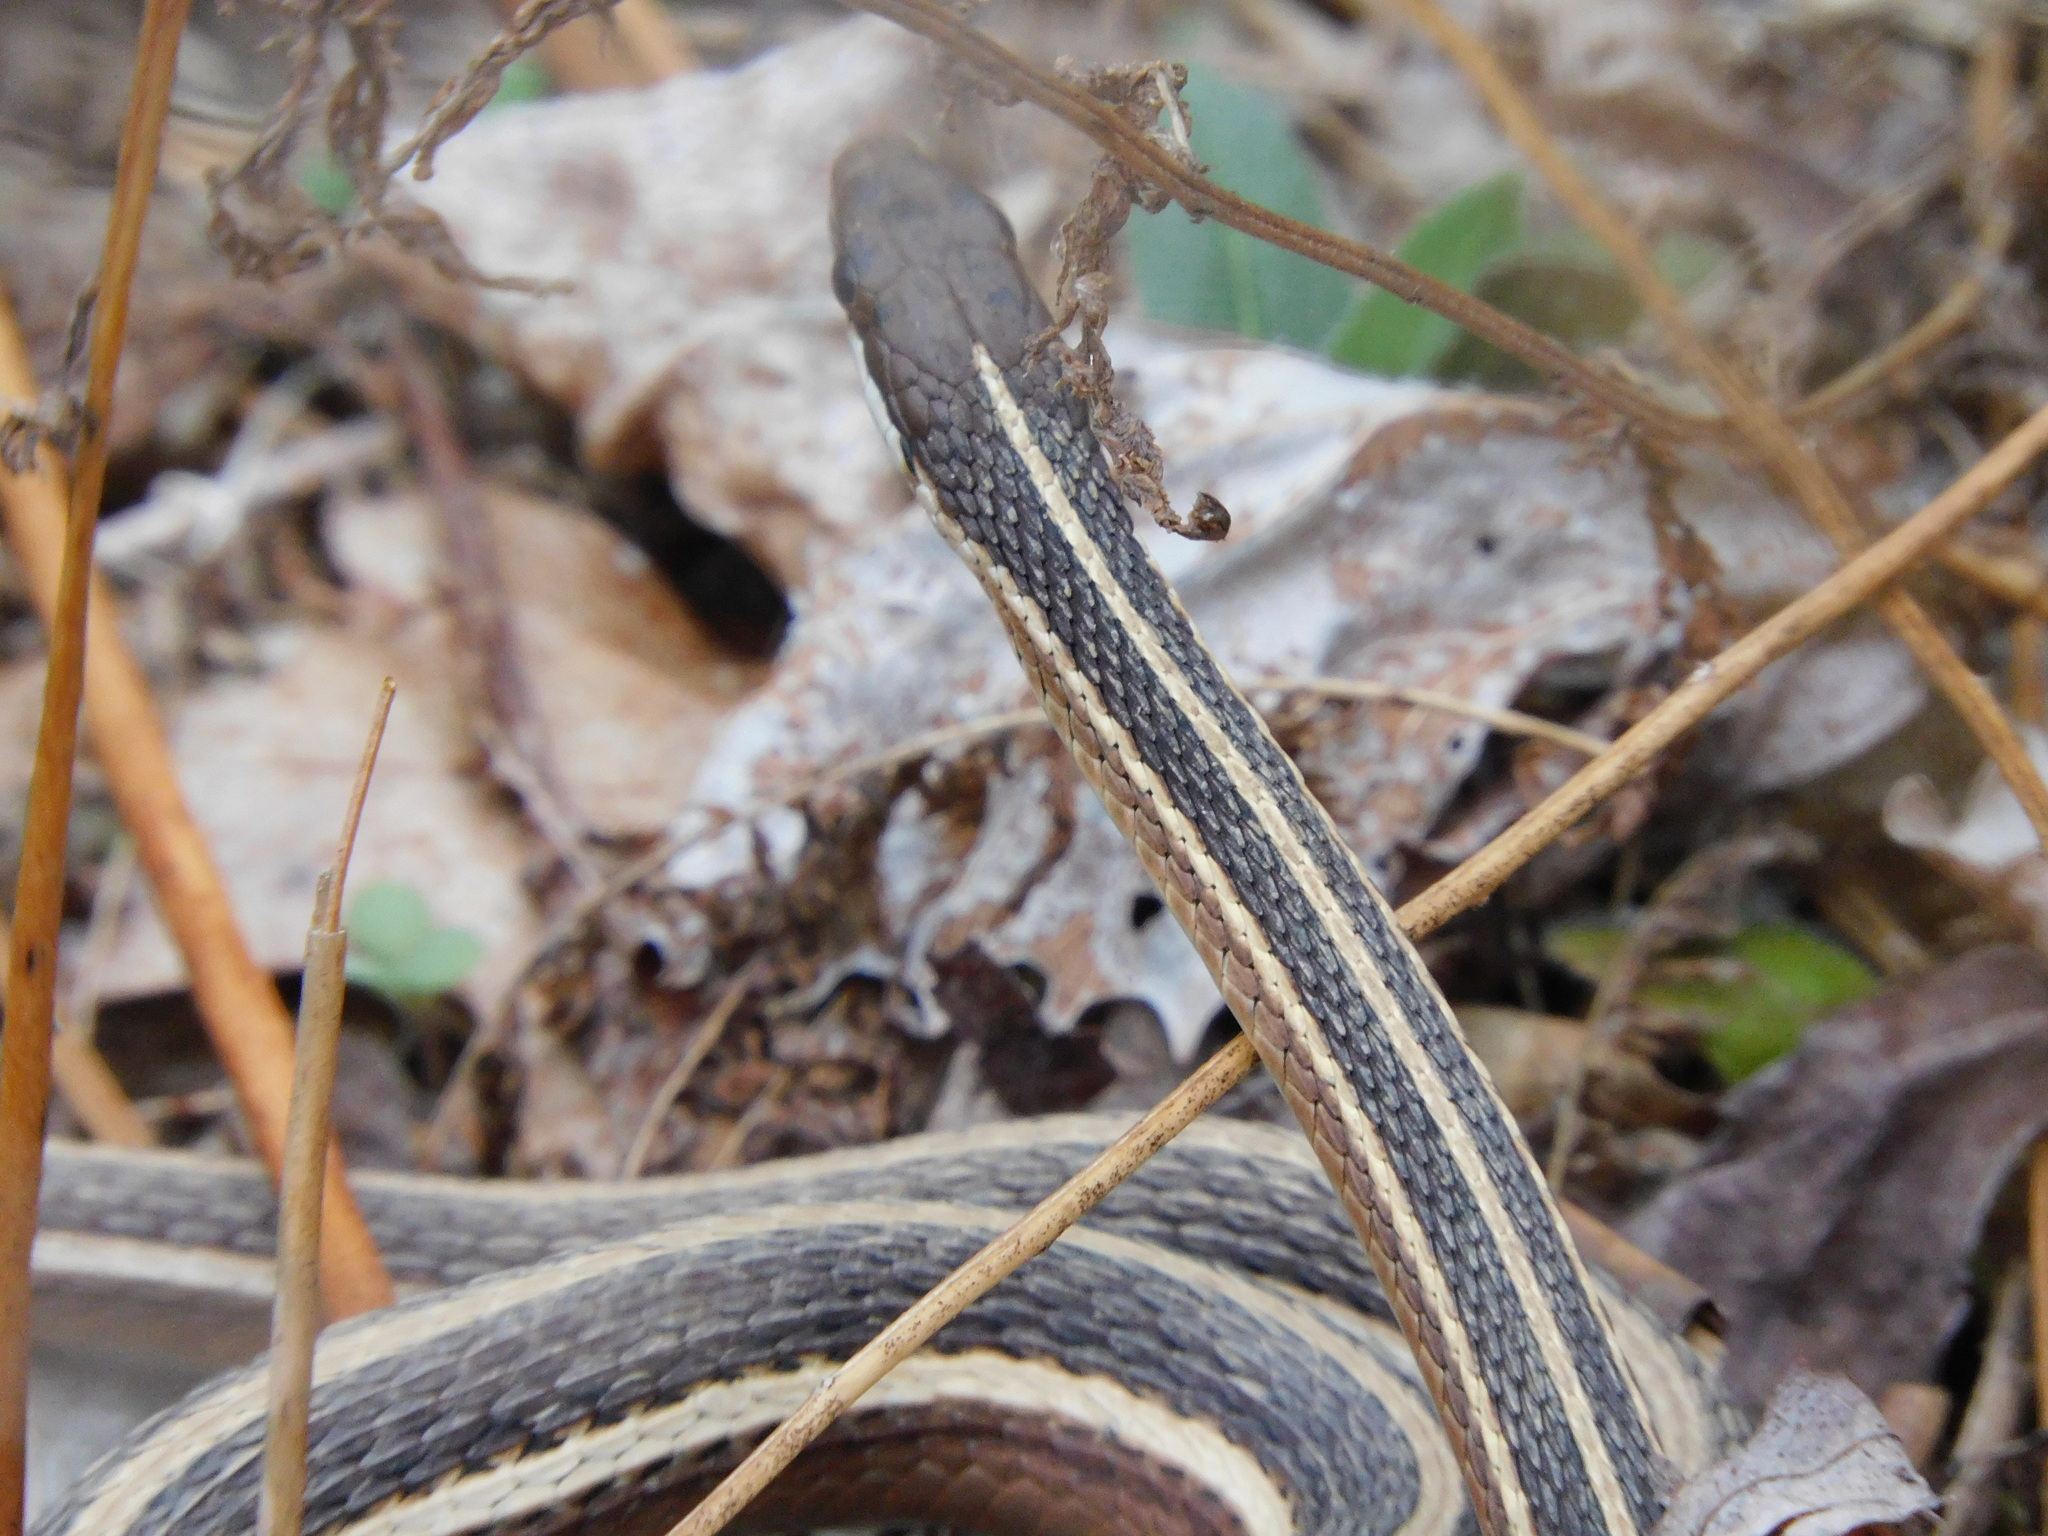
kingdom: Animalia
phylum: Chordata
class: Squamata
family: Colubridae
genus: Thamnophis
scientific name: Thamnophis saurita
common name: Eastern ribbonsnake
